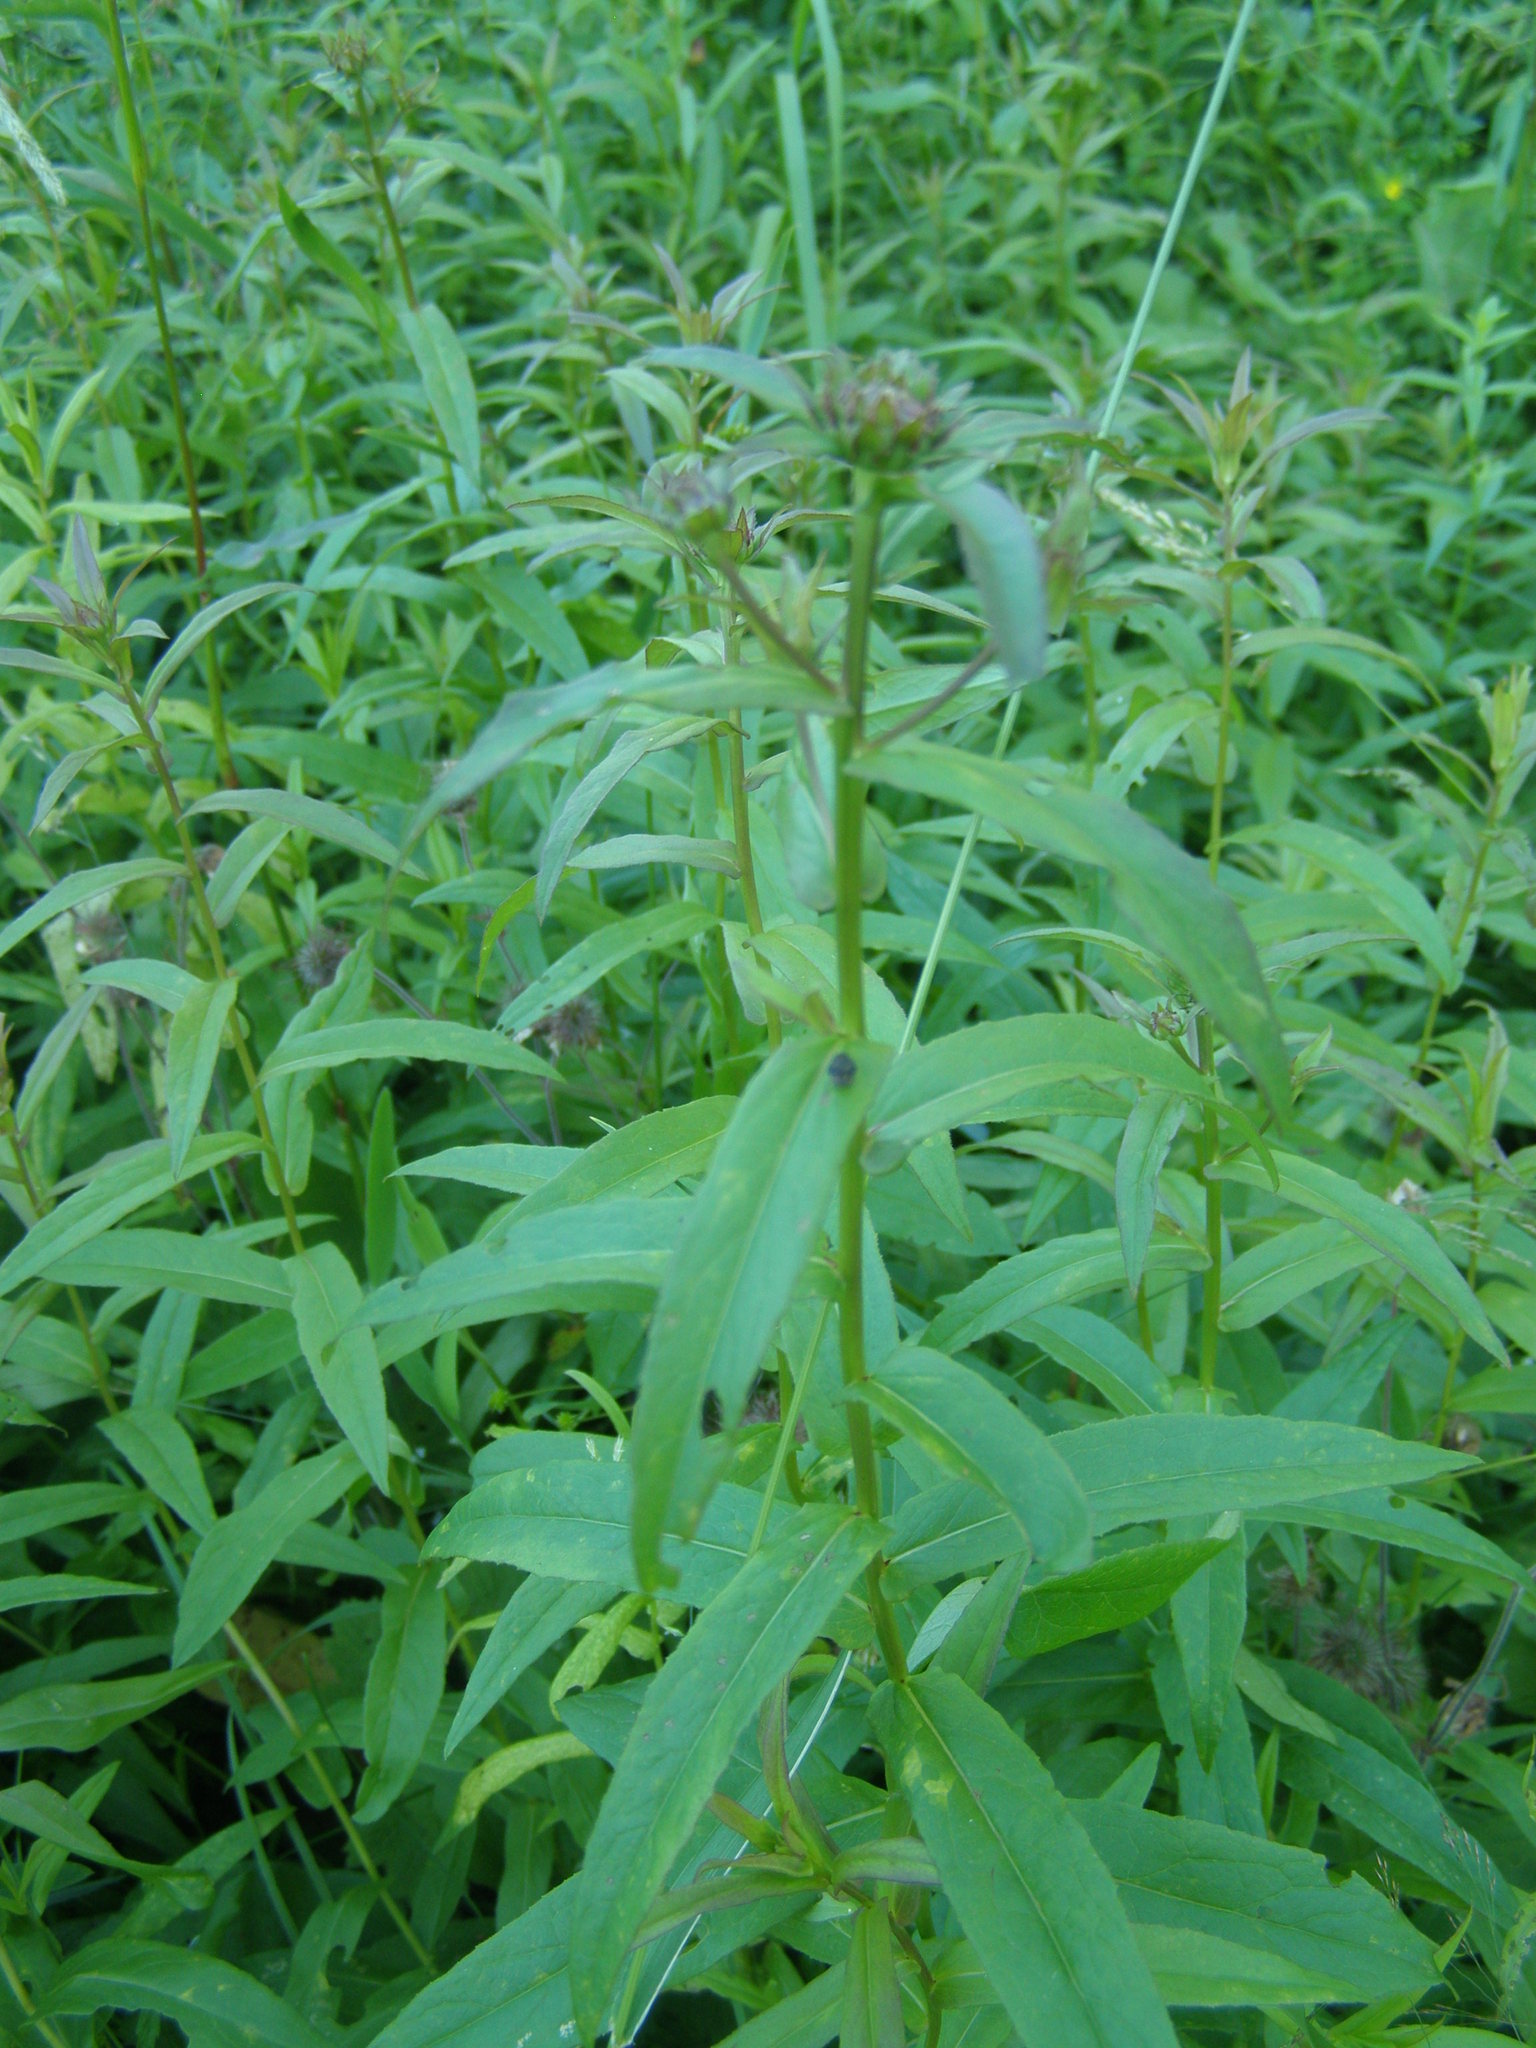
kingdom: Plantae
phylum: Tracheophyta
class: Magnoliopsida
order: Asterales
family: Asteraceae
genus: Pentanema
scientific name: Pentanema salicinum
